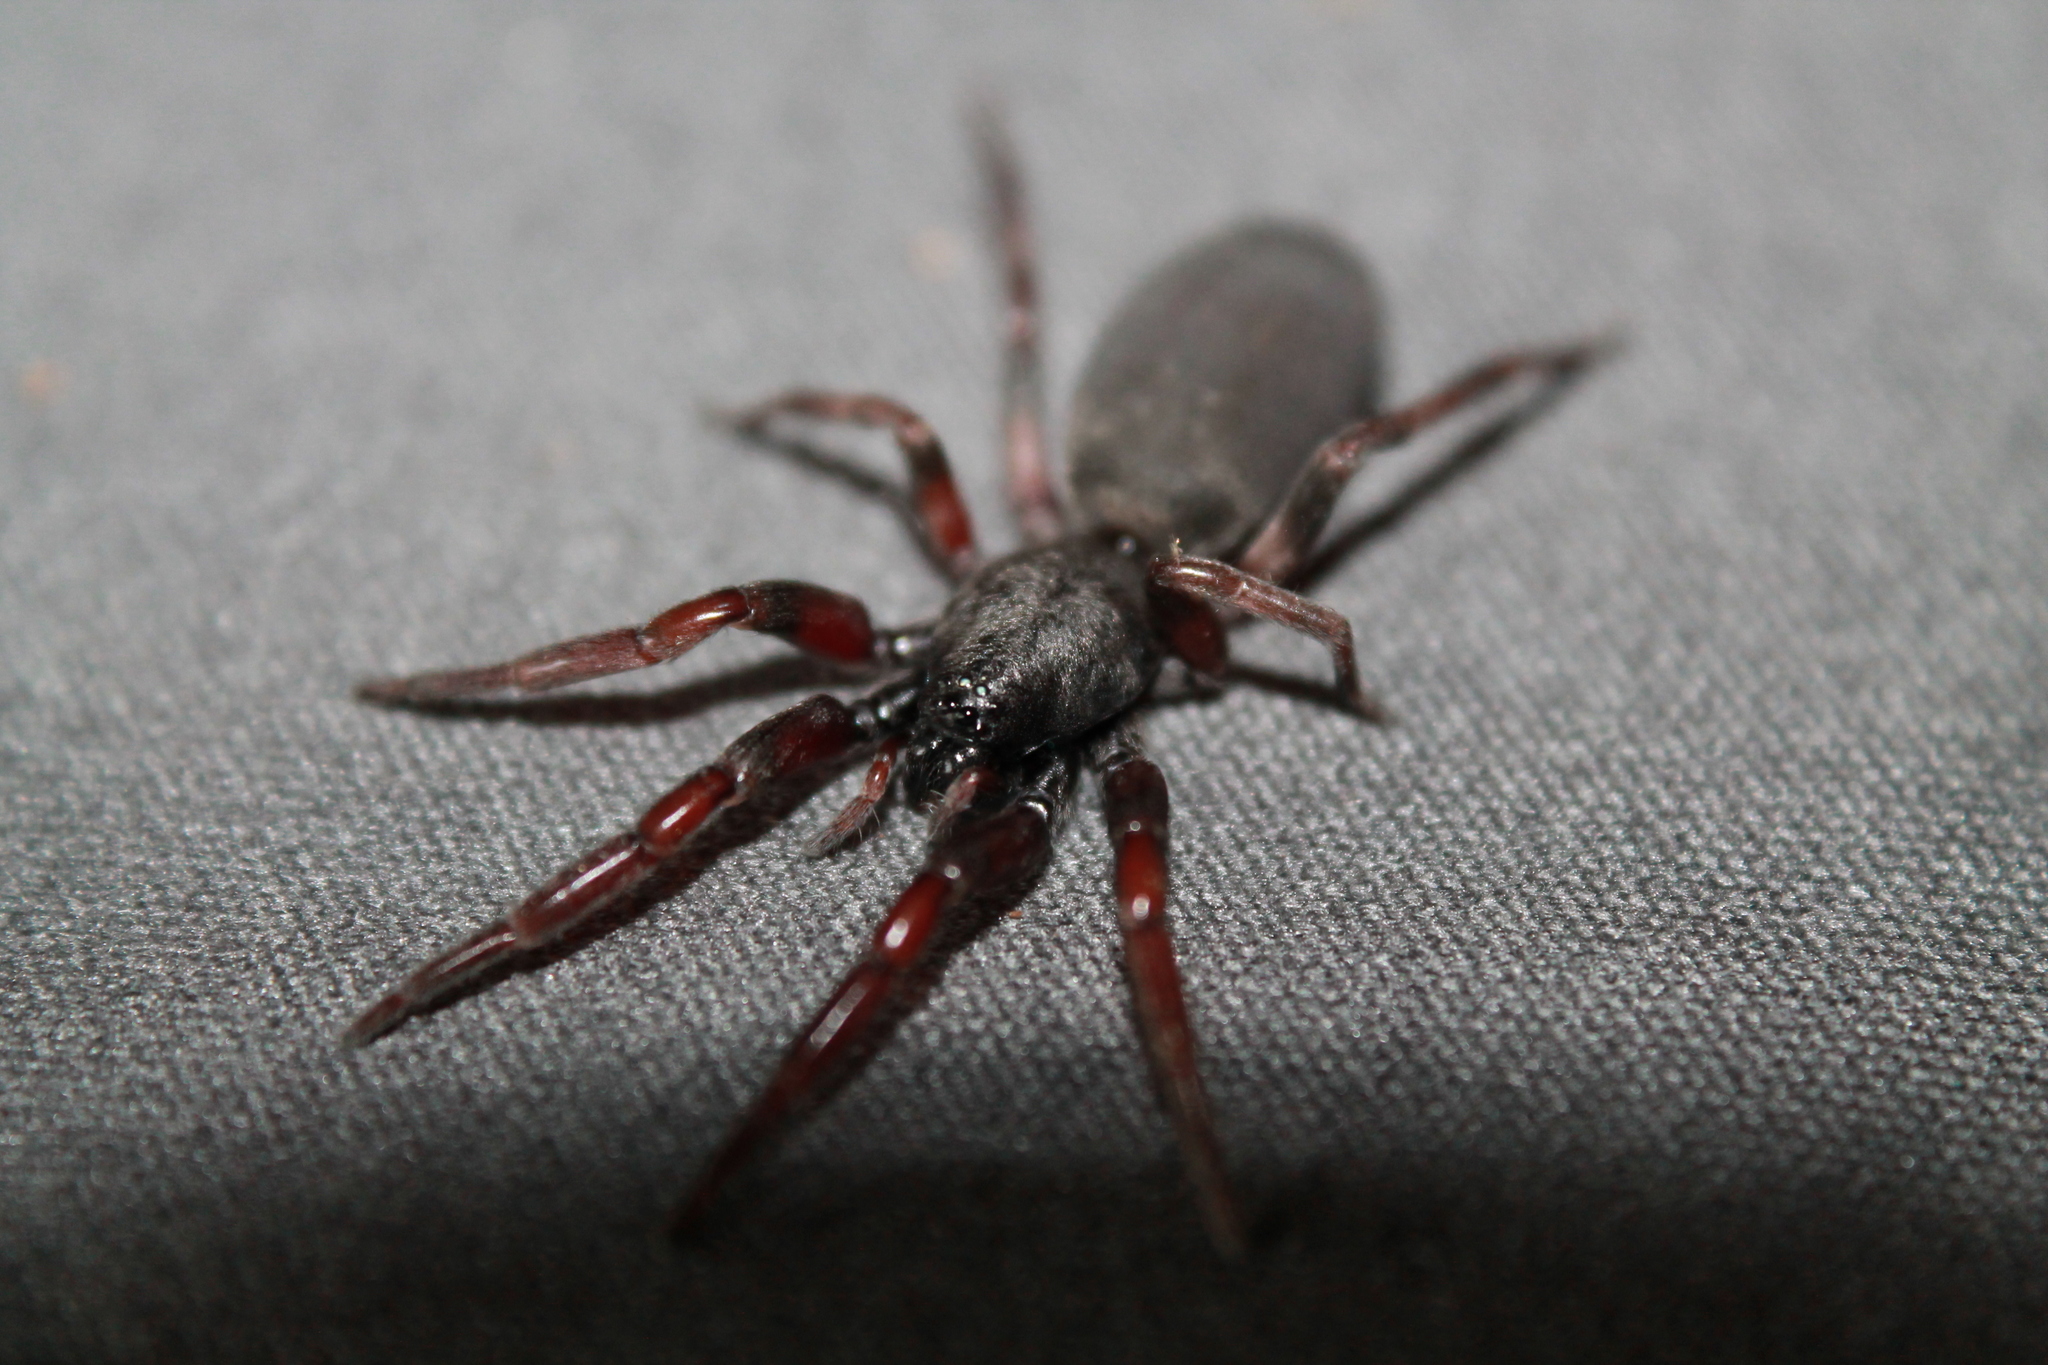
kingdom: Animalia
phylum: Arthropoda
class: Arachnida
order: Araneae
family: Lamponidae
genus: Lampona
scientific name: Lampona murina
